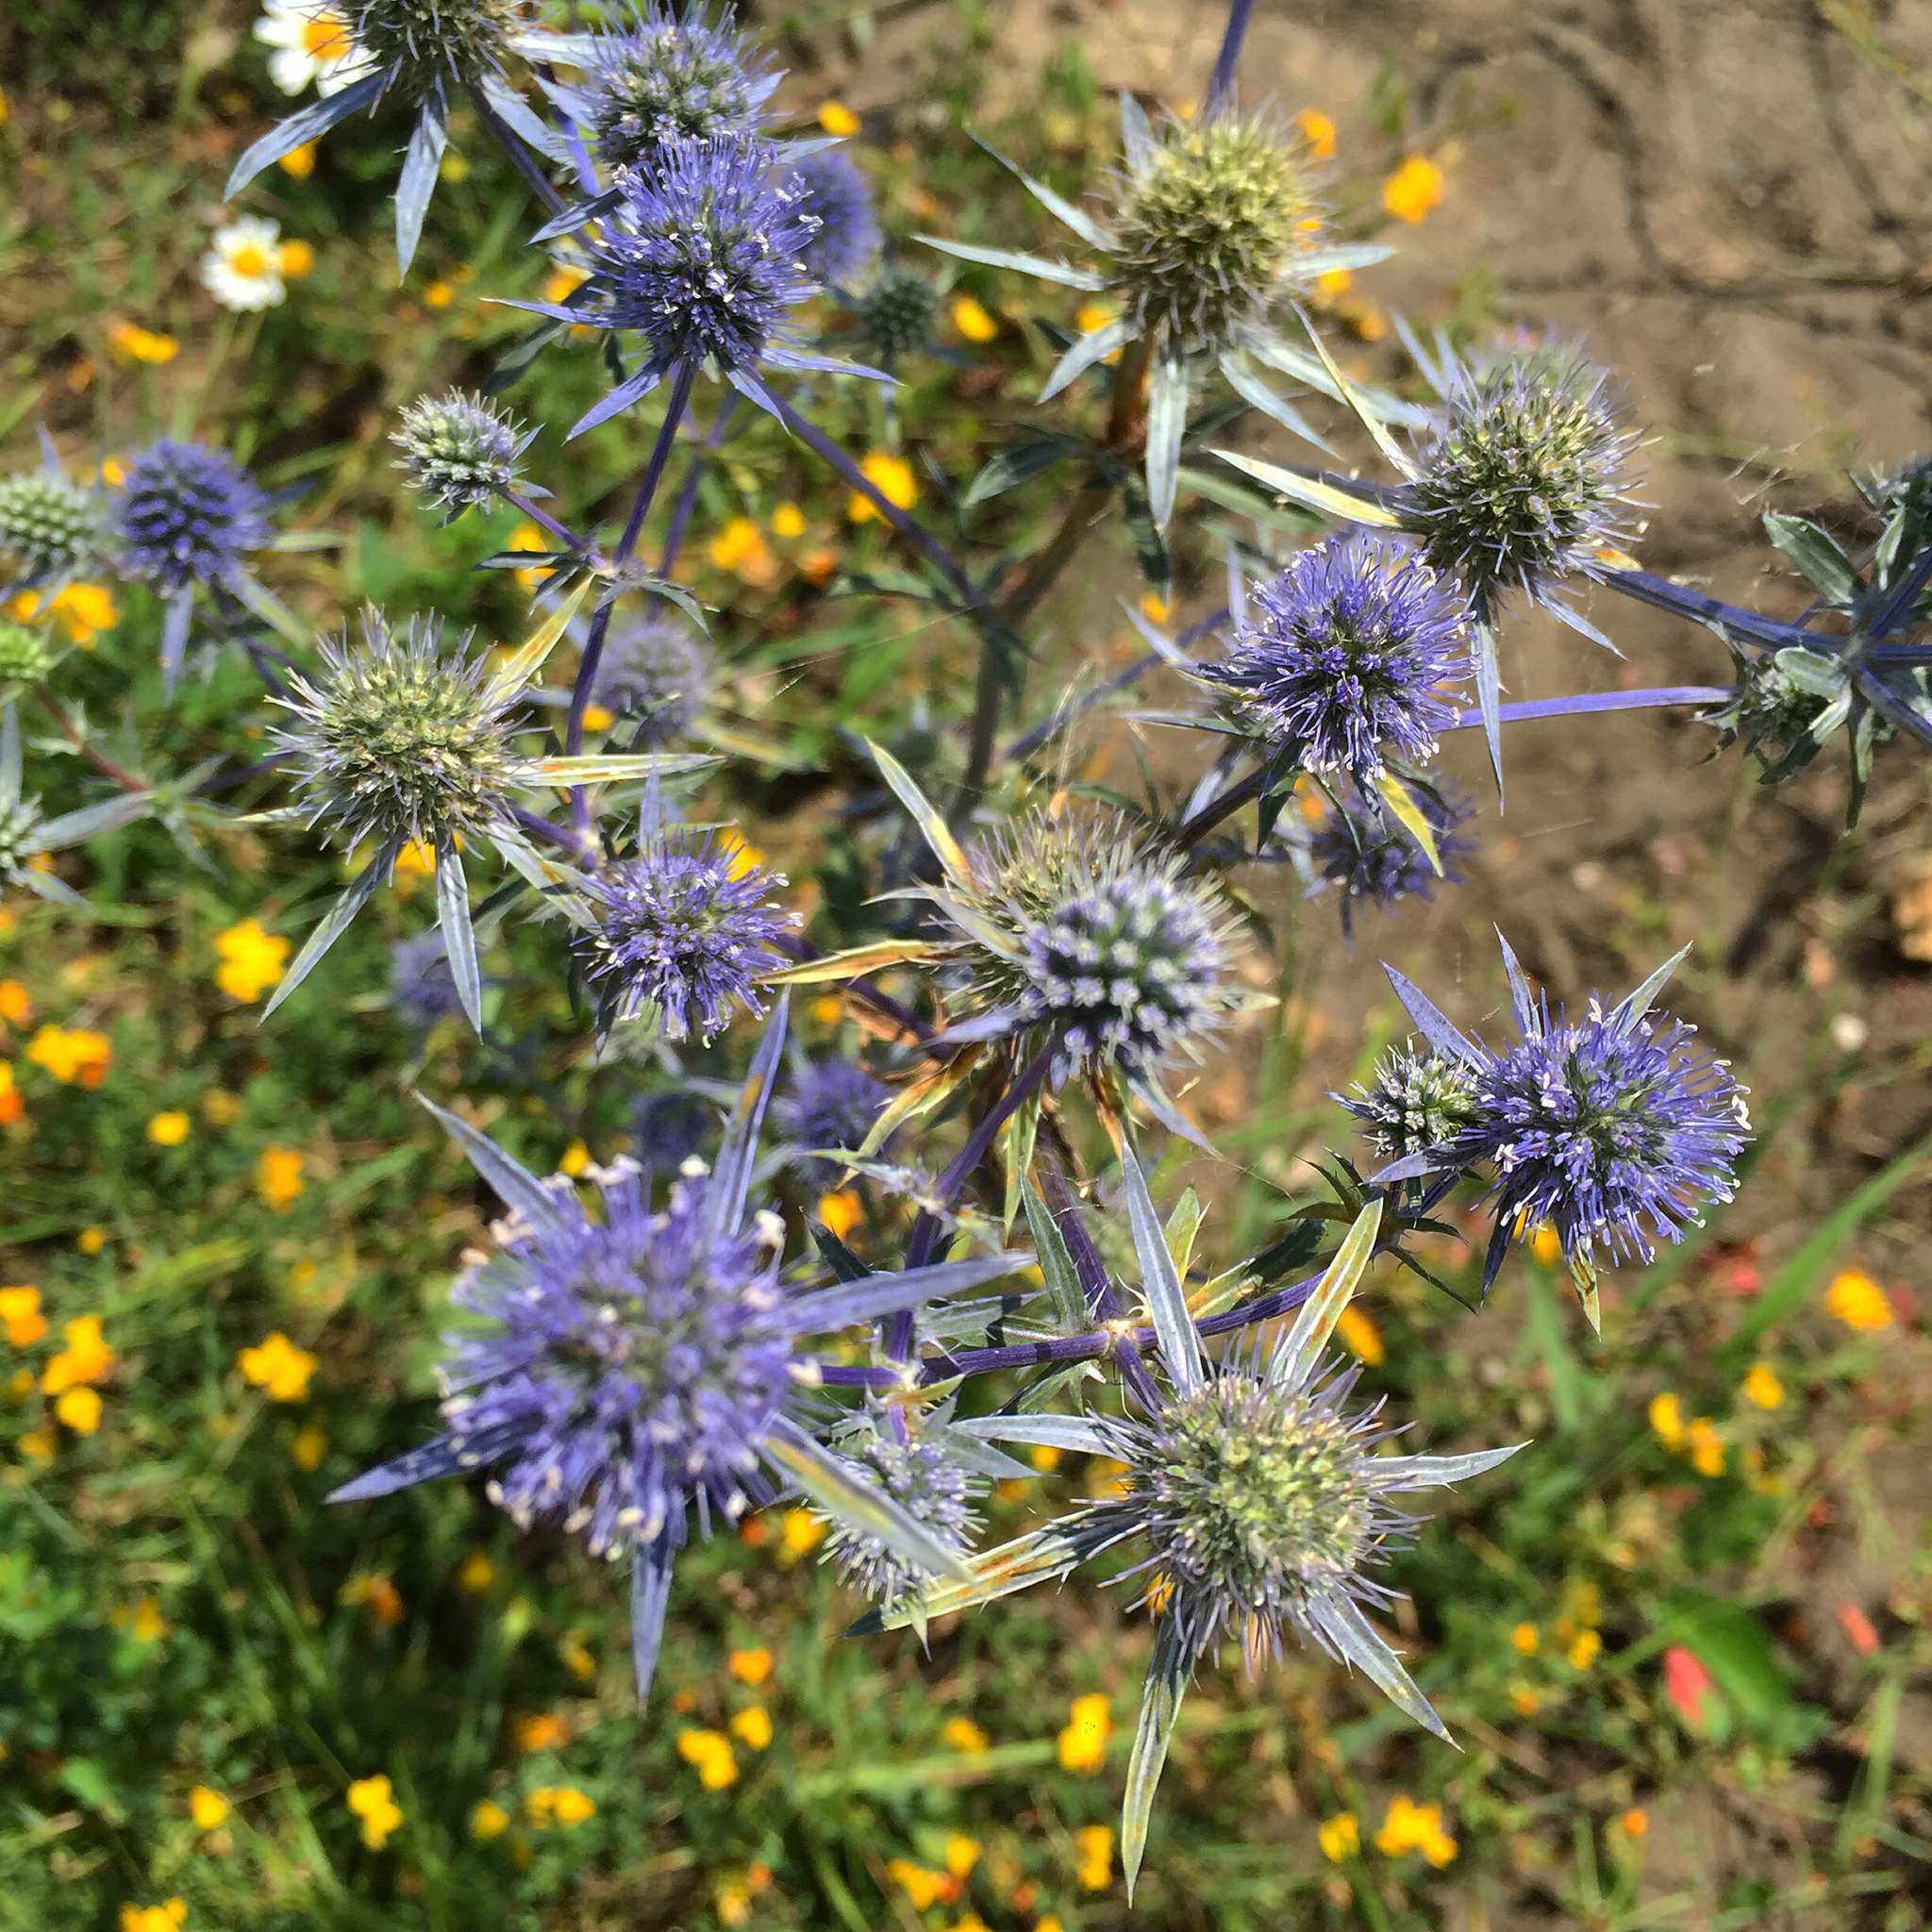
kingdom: Plantae
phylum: Tracheophyta
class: Magnoliopsida
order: Apiales
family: Apiaceae
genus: Eryngium
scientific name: Eryngium planum
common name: Blue eryngo
